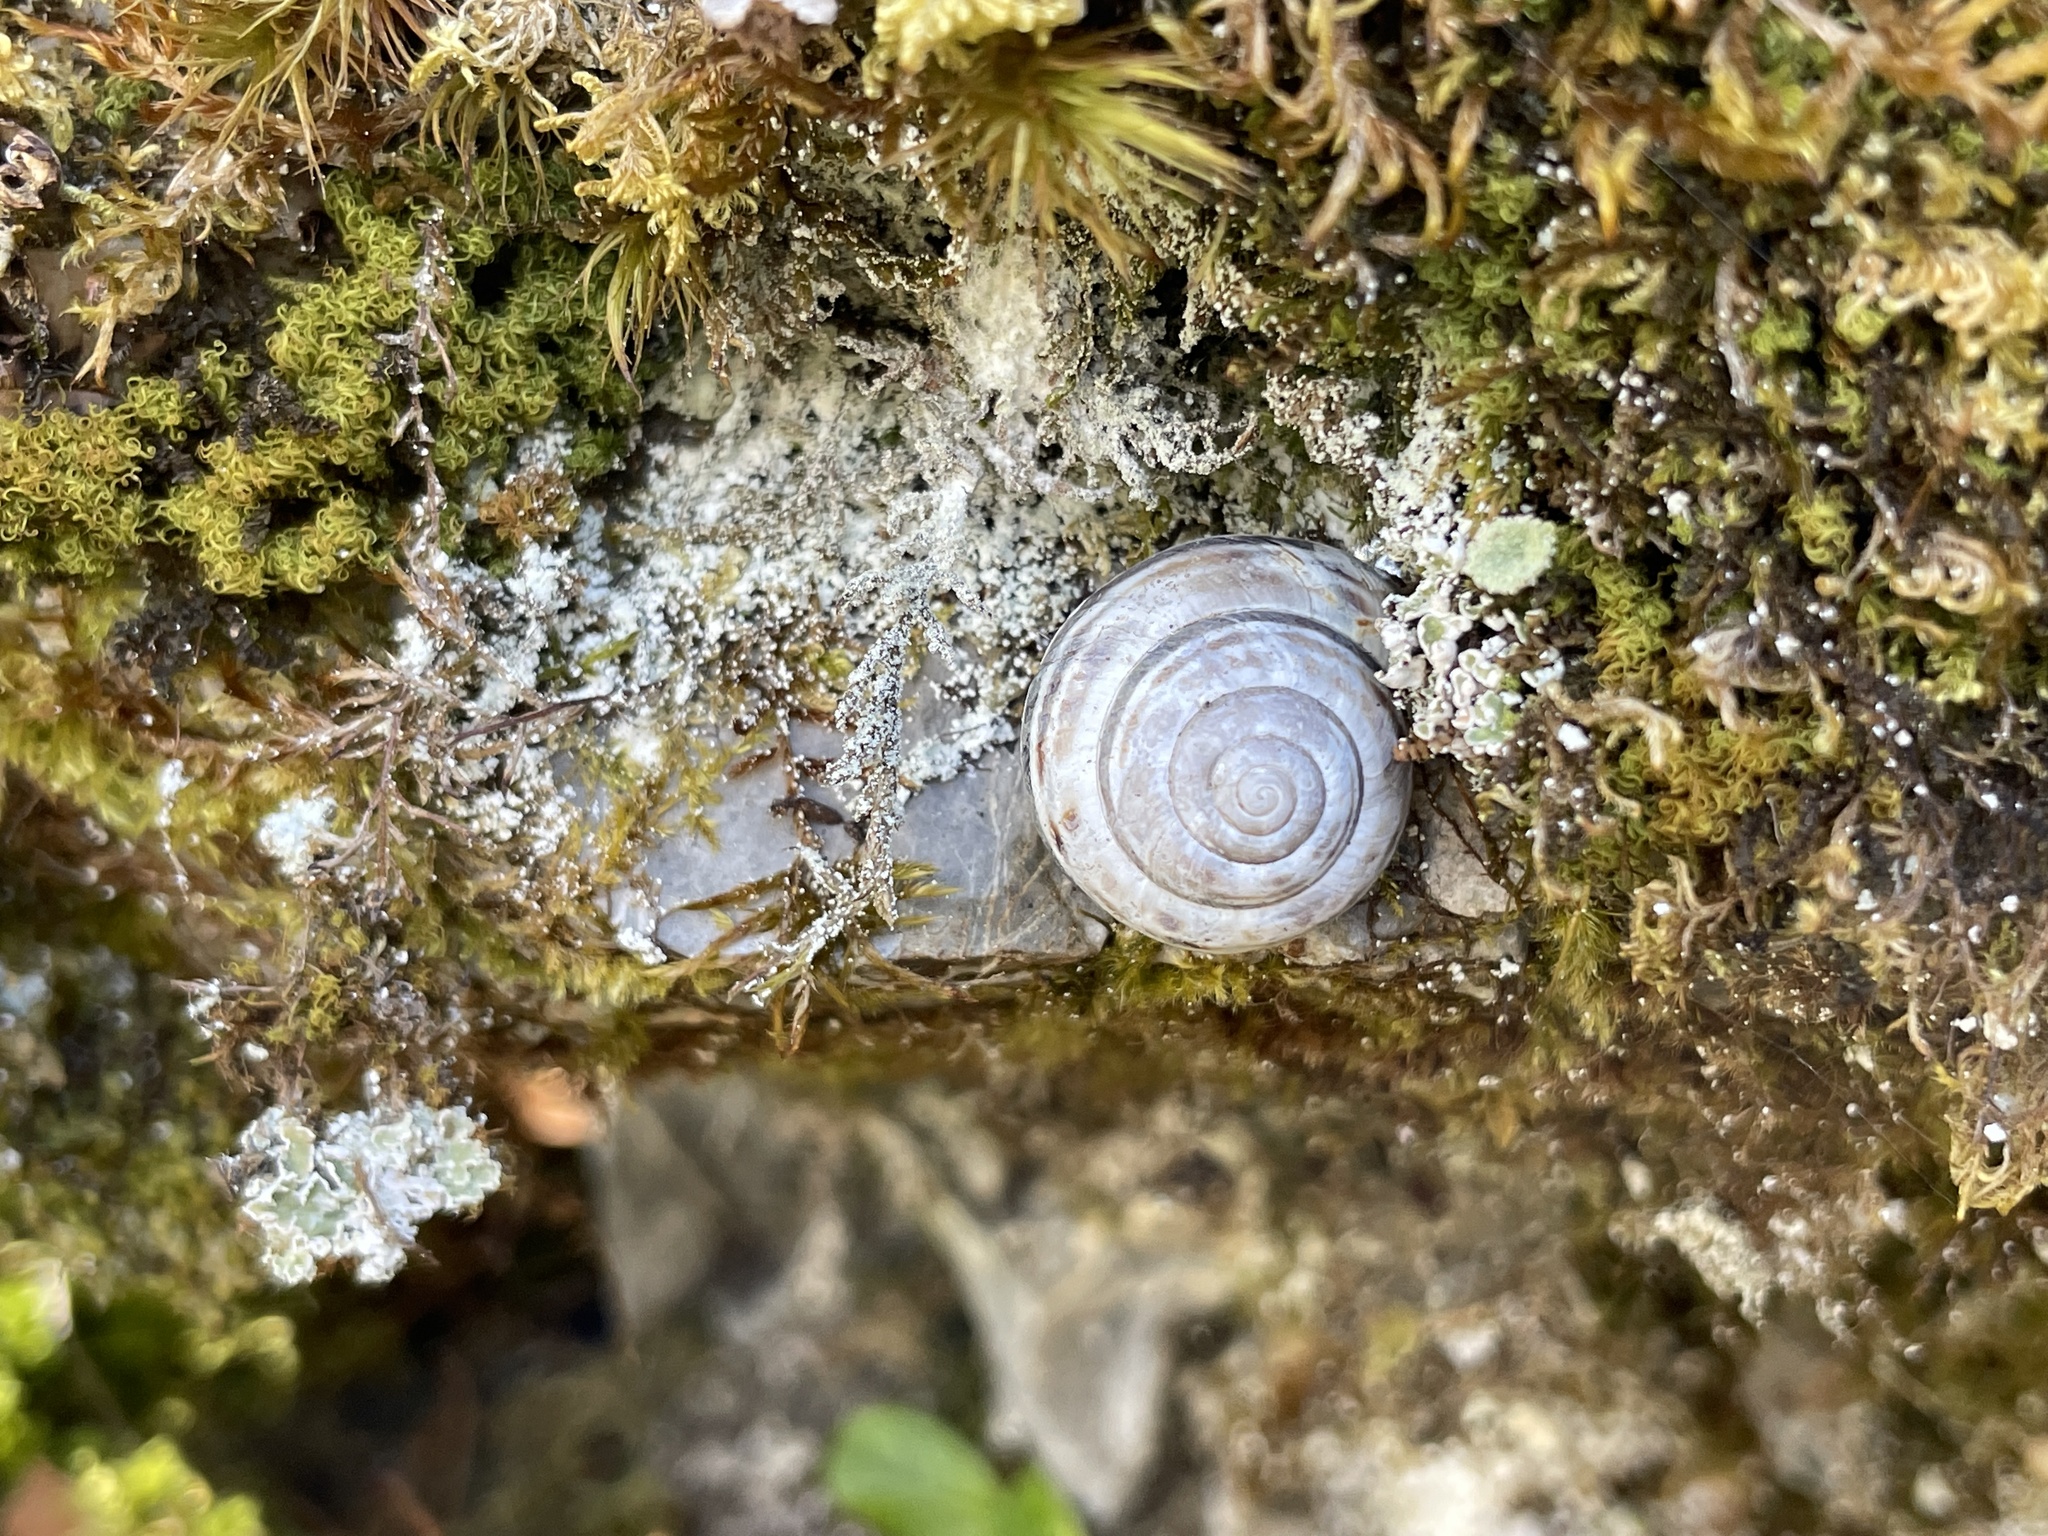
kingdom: Animalia
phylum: Mollusca
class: Gastropoda
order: Stylommatophora
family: Helicidae
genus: Macularia
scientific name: Macularia sylvatica
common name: Hélice sylvatique
